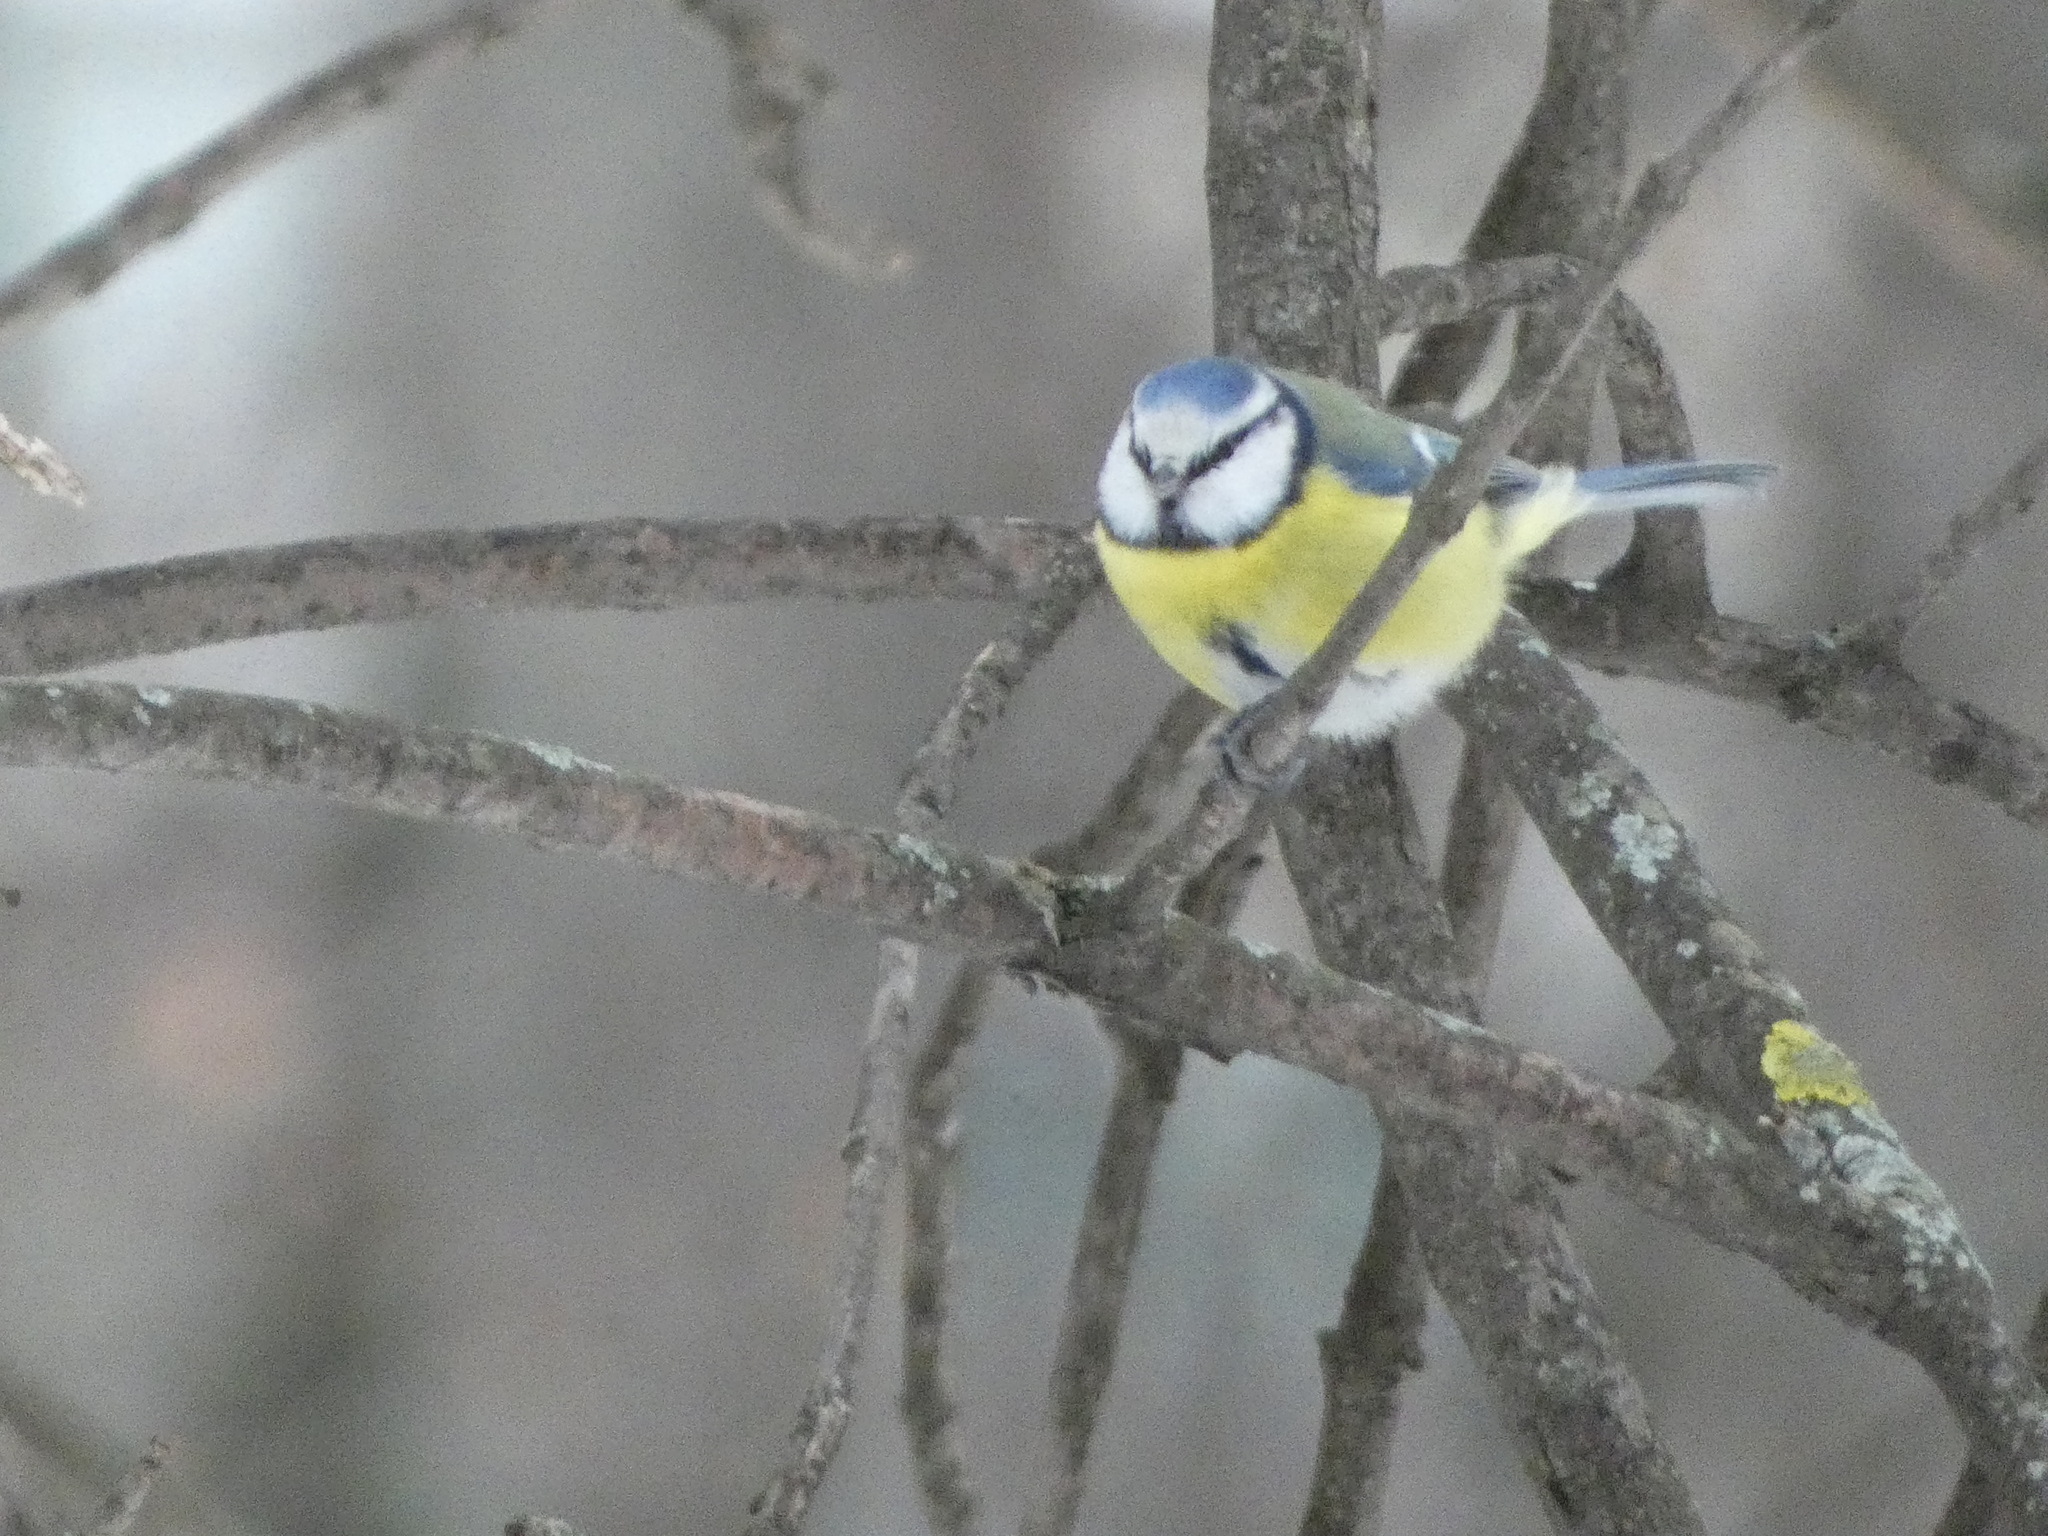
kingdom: Animalia
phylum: Chordata
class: Aves
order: Passeriformes
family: Paridae
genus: Cyanistes
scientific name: Cyanistes caeruleus
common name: Eurasian blue tit
